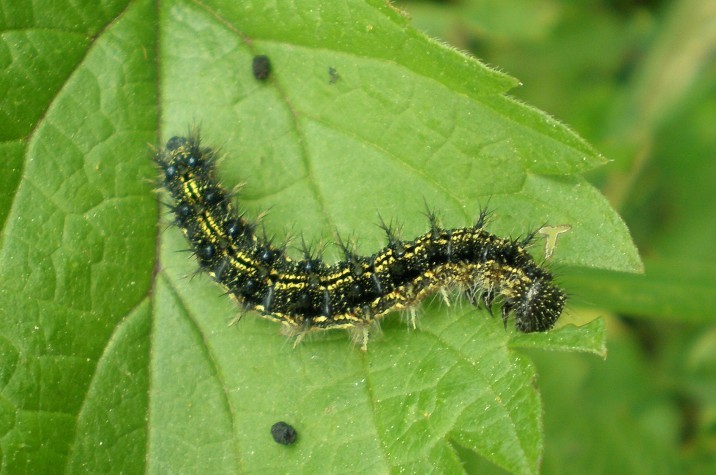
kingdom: Animalia
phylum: Arthropoda
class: Insecta
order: Lepidoptera
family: Nymphalidae
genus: Aglais
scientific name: Aglais urticae
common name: Small tortoiseshell
